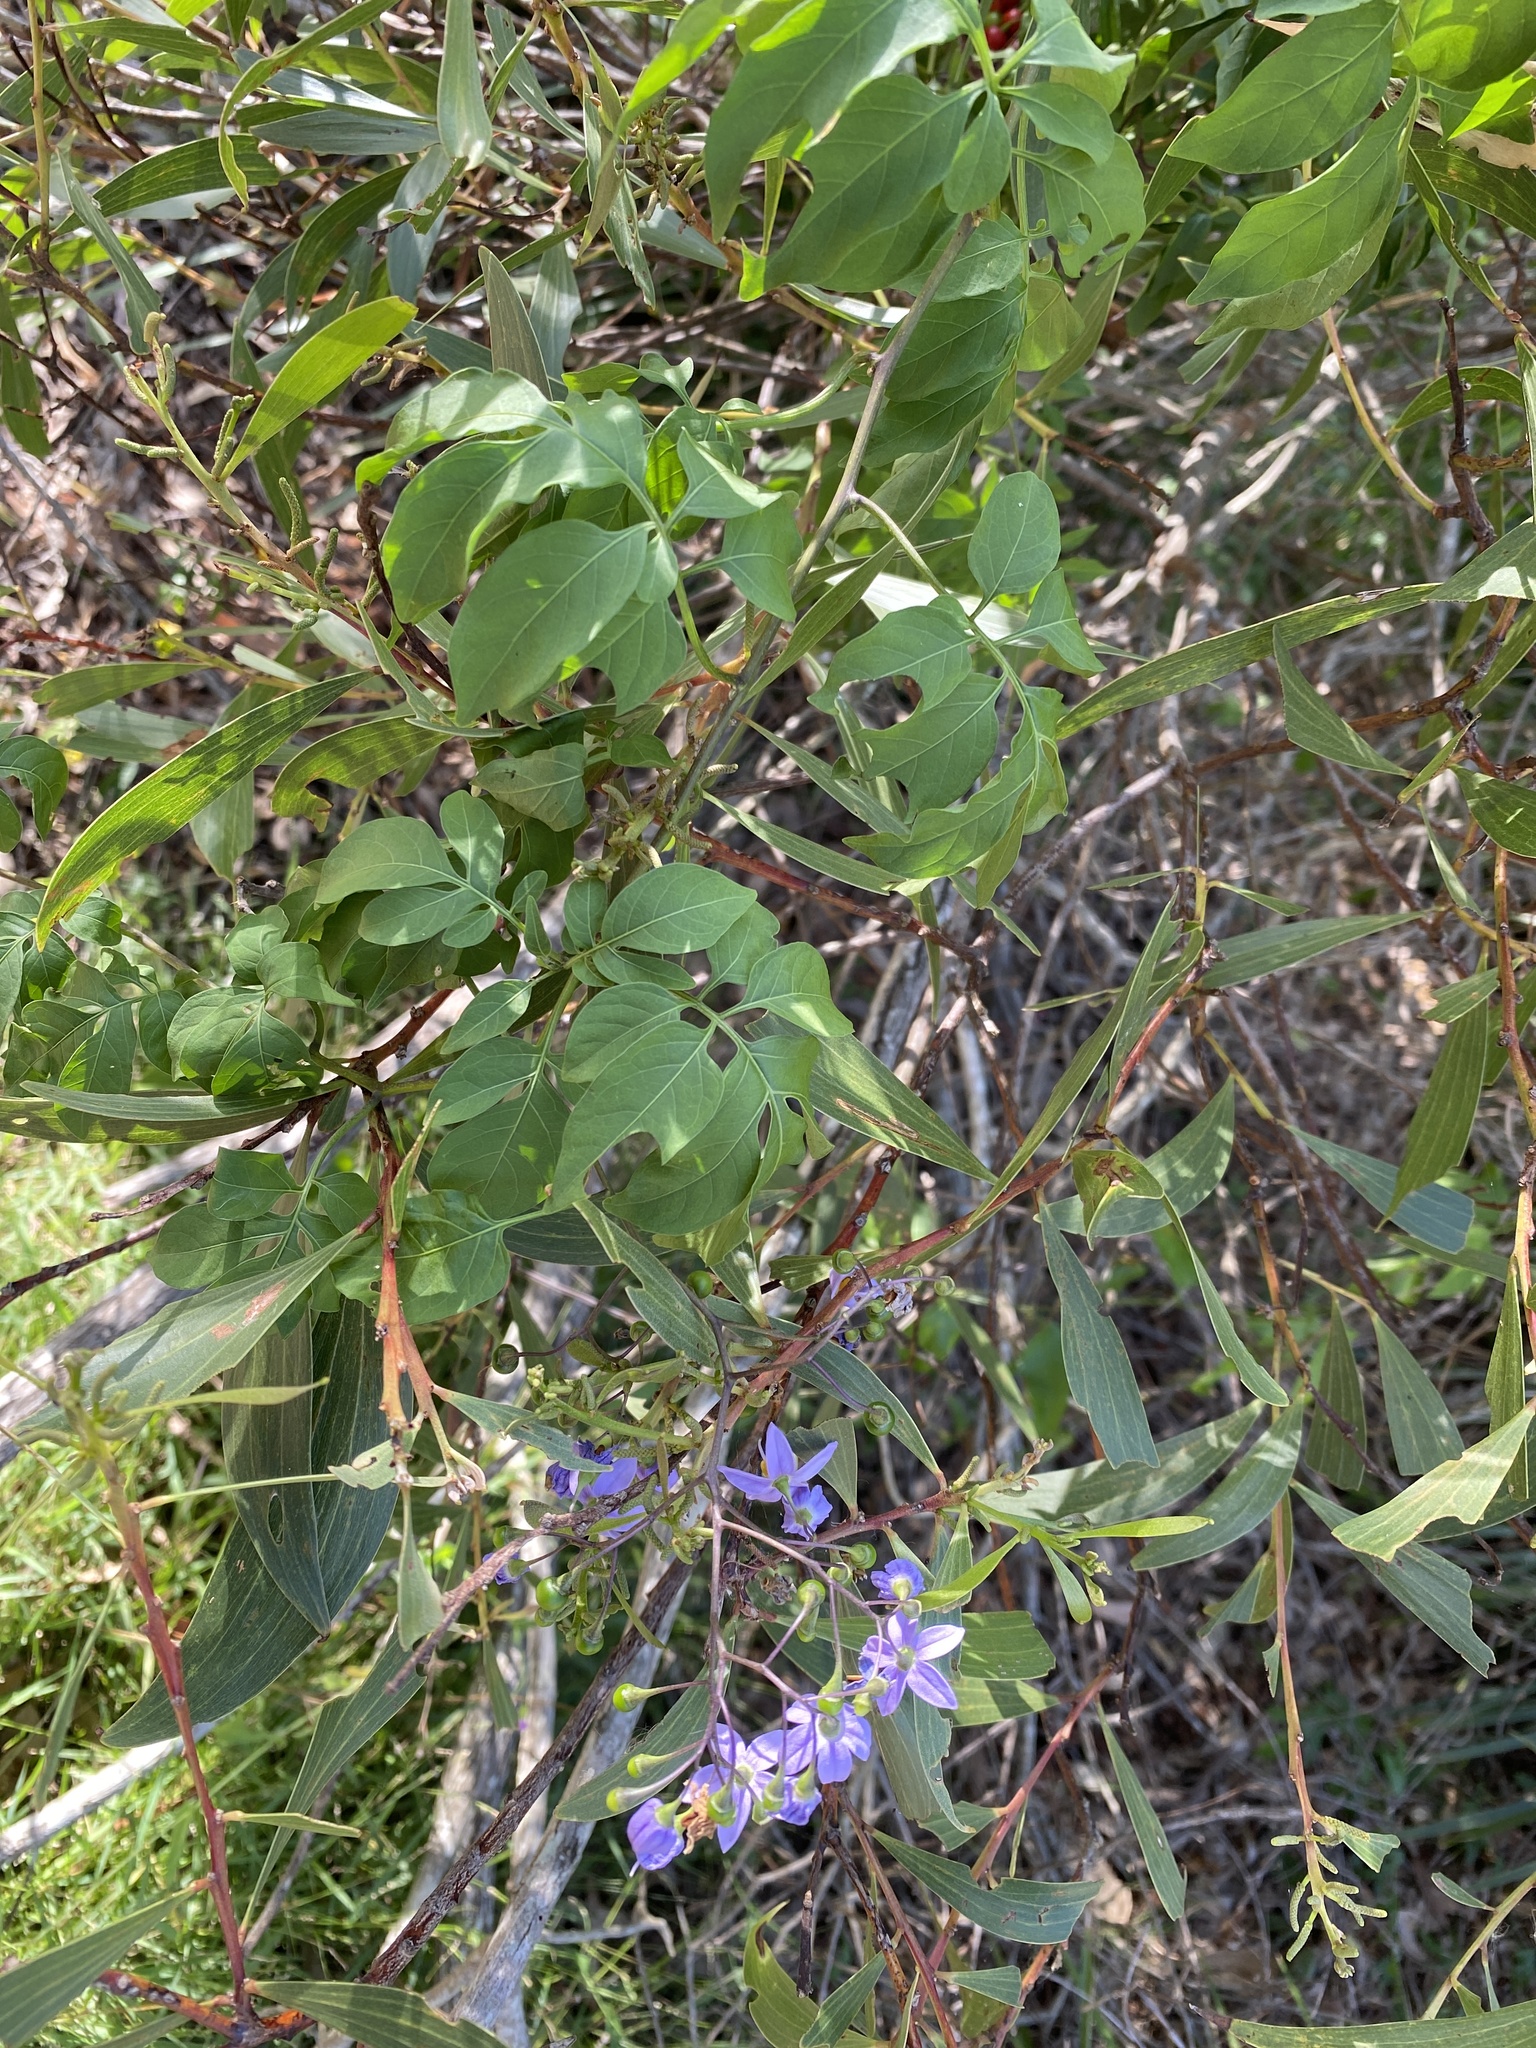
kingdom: Plantae
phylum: Tracheophyta
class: Magnoliopsida
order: Solanales
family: Solanaceae
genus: Solanum
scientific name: Solanum seaforthianum
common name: Brazilian nightshade
